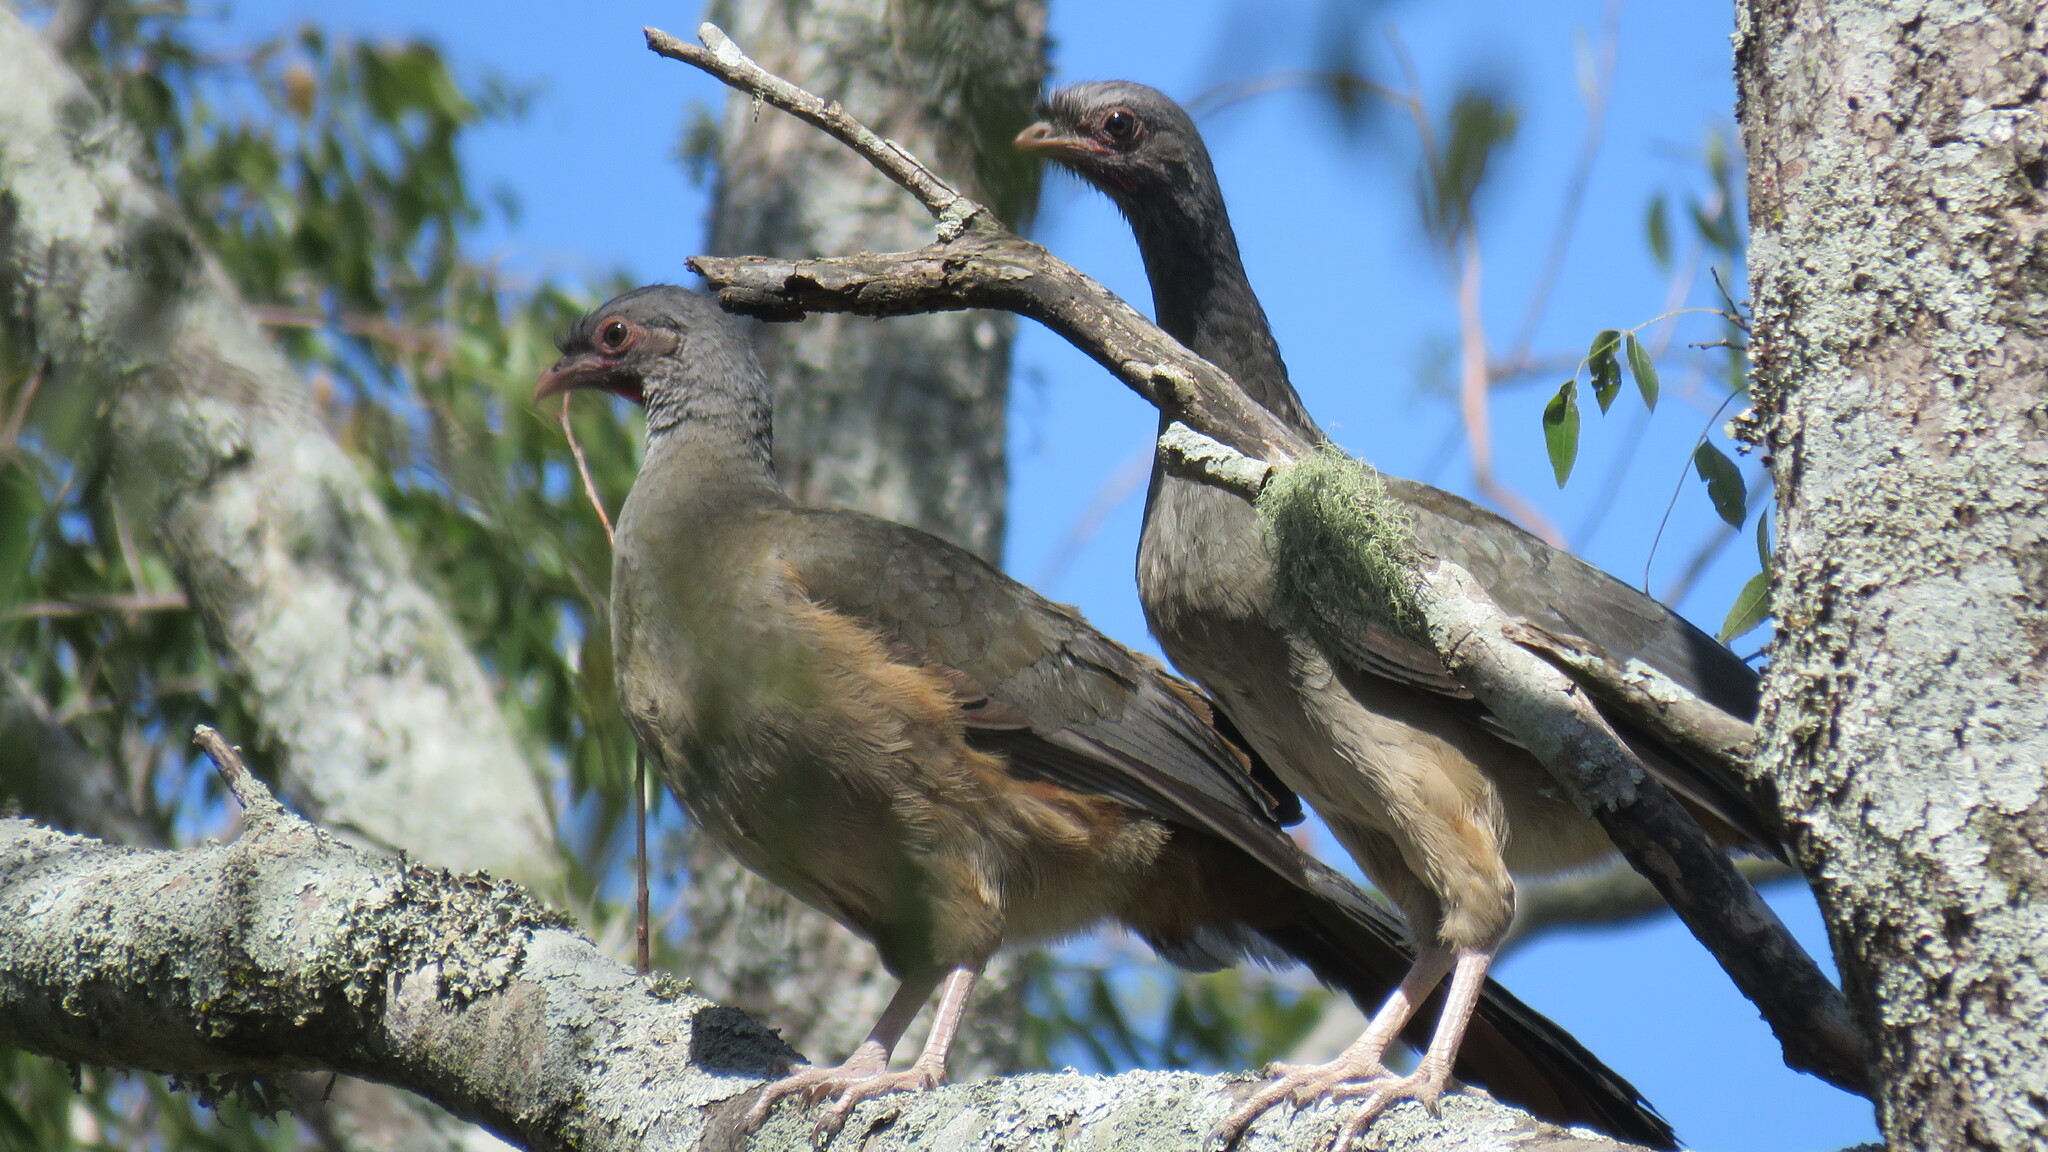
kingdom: Animalia
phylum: Chordata
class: Aves
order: Galliformes
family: Cracidae
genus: Ortalis
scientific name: Ortalis canicollis
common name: Chaco chachalaca
